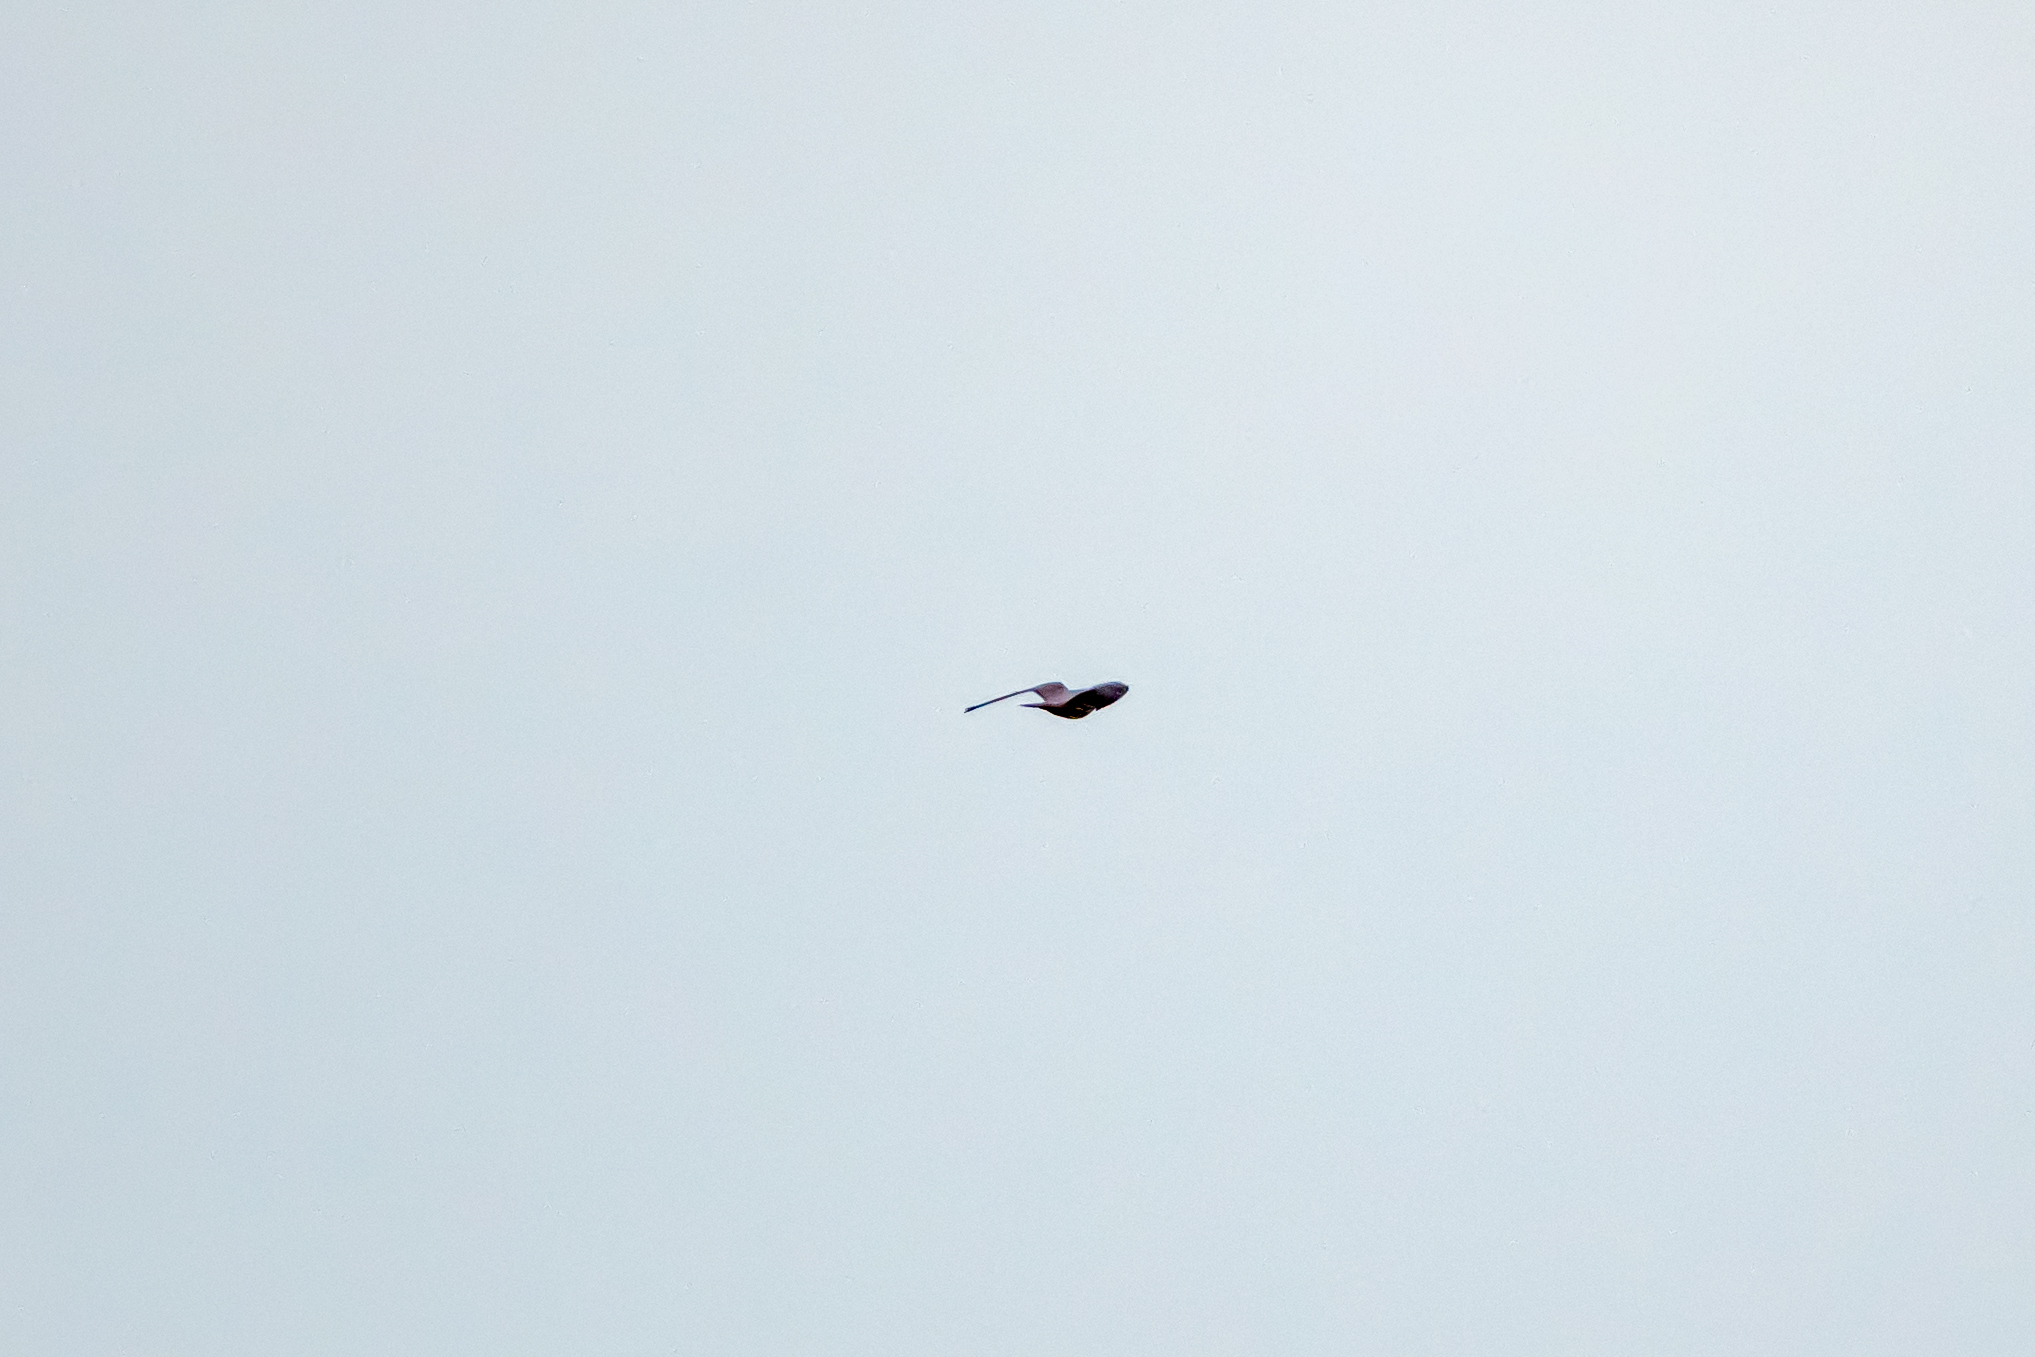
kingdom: Animalia
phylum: Chordata
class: Aves
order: Falconiformes
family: Falconidae
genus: Falco
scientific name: Falco subbuteo
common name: Eurasian hobby
